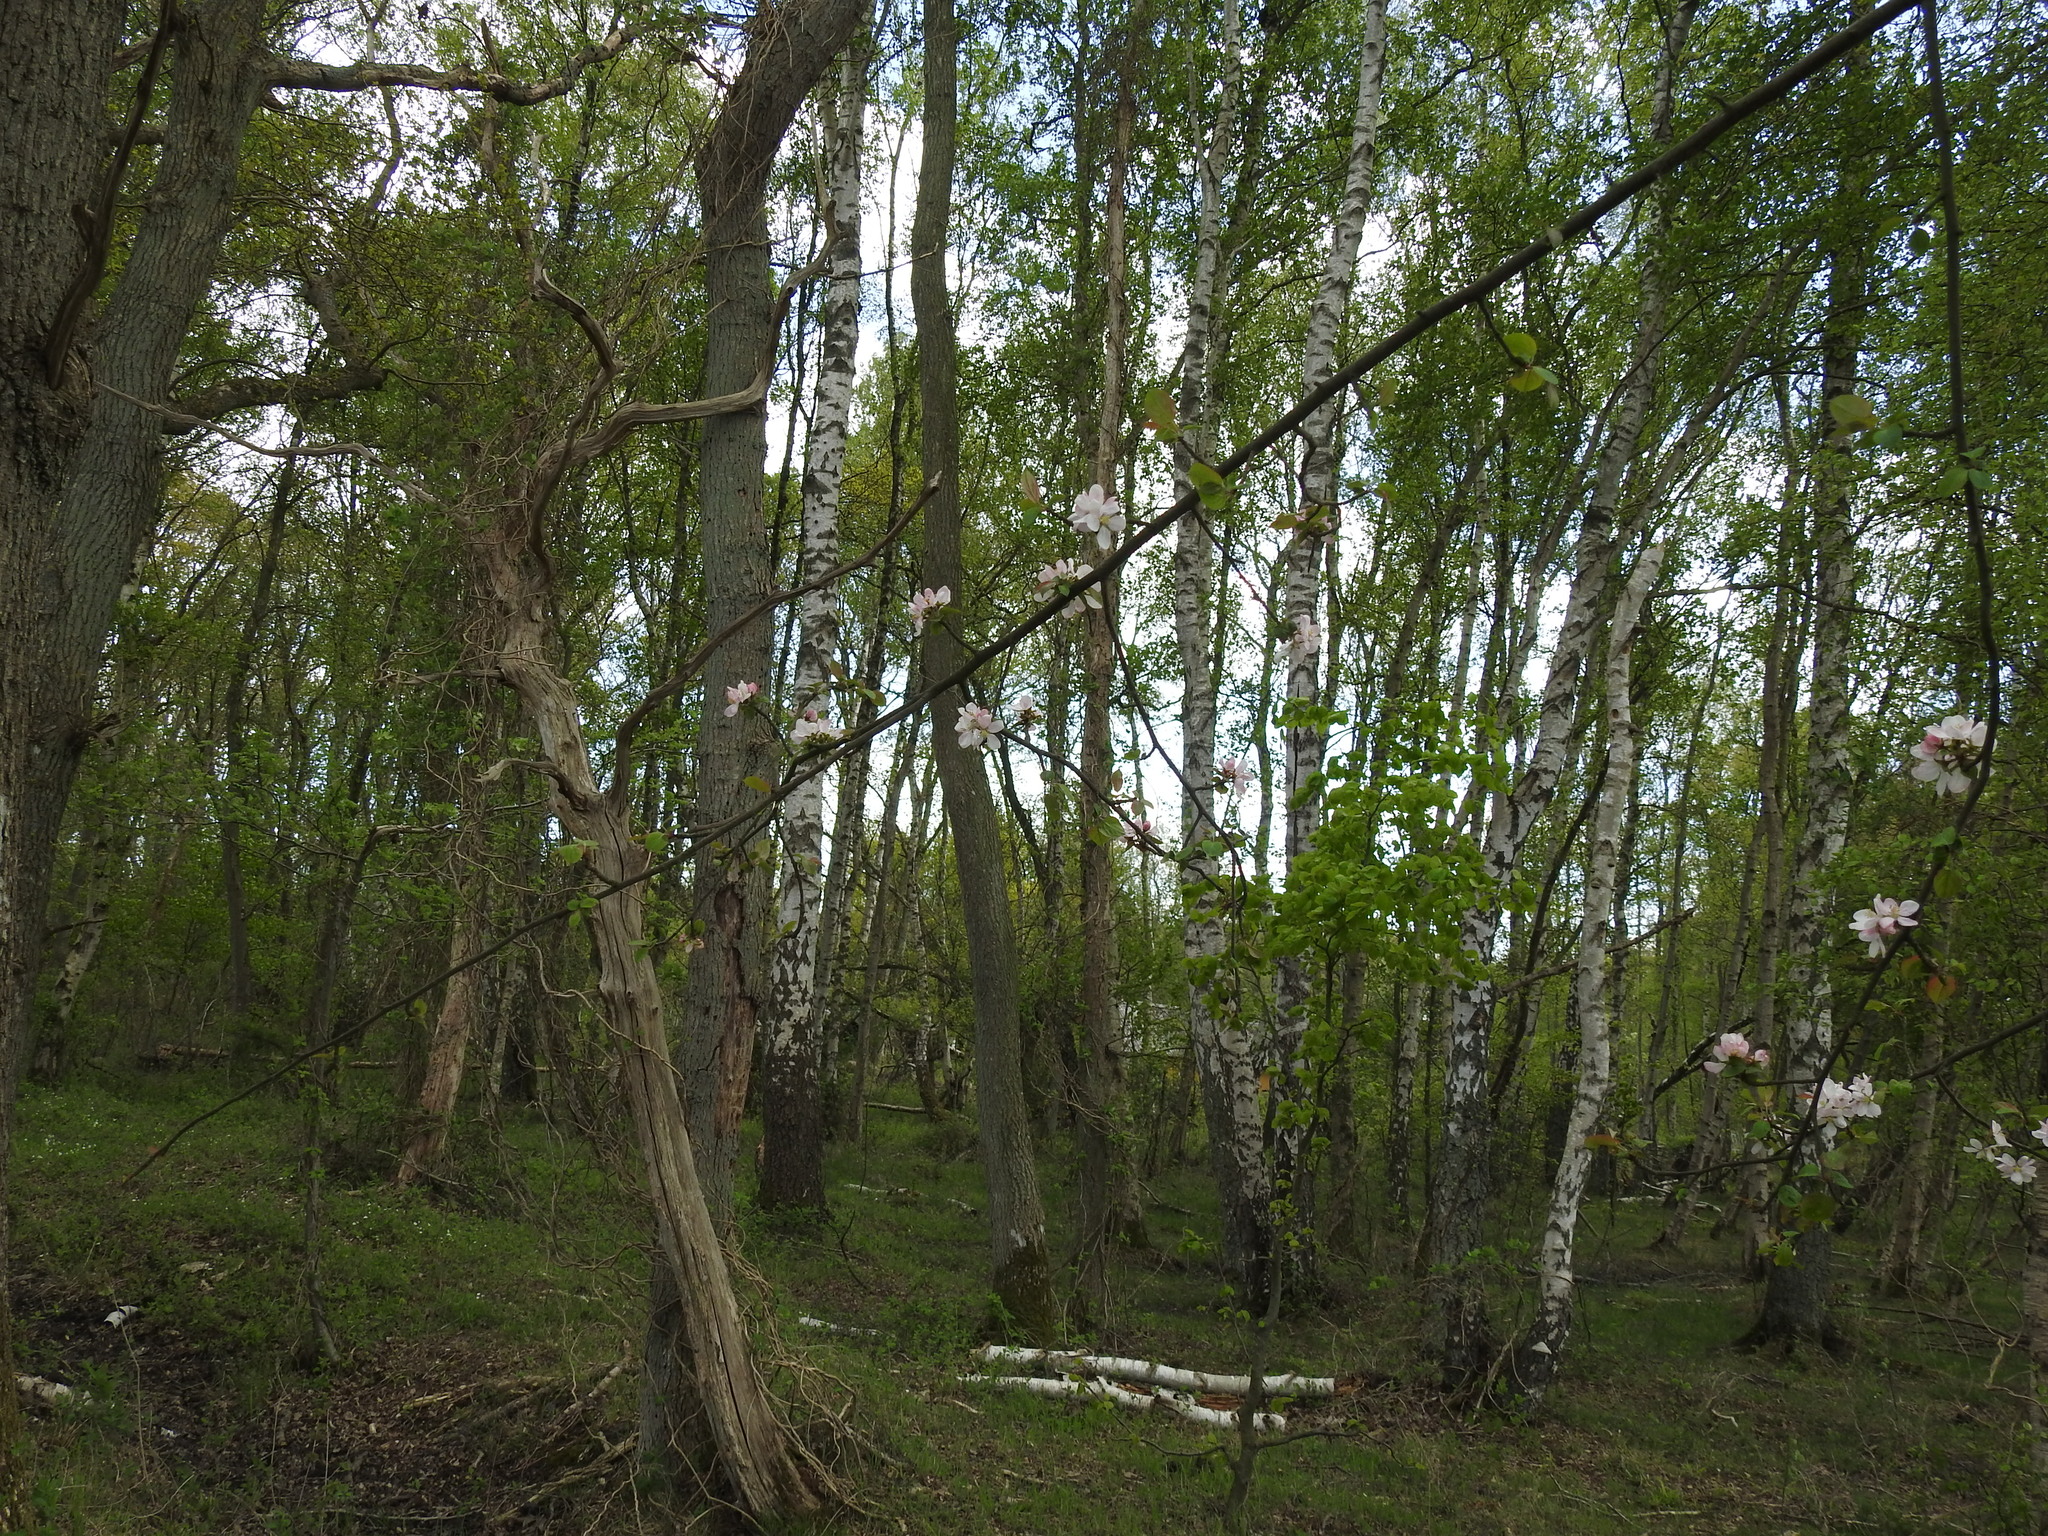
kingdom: Plantae
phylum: Tracheophyta
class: Magnoliopsida
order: Rosales
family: Rosaceae
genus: Malus
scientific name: Malus domestica
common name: Apple
